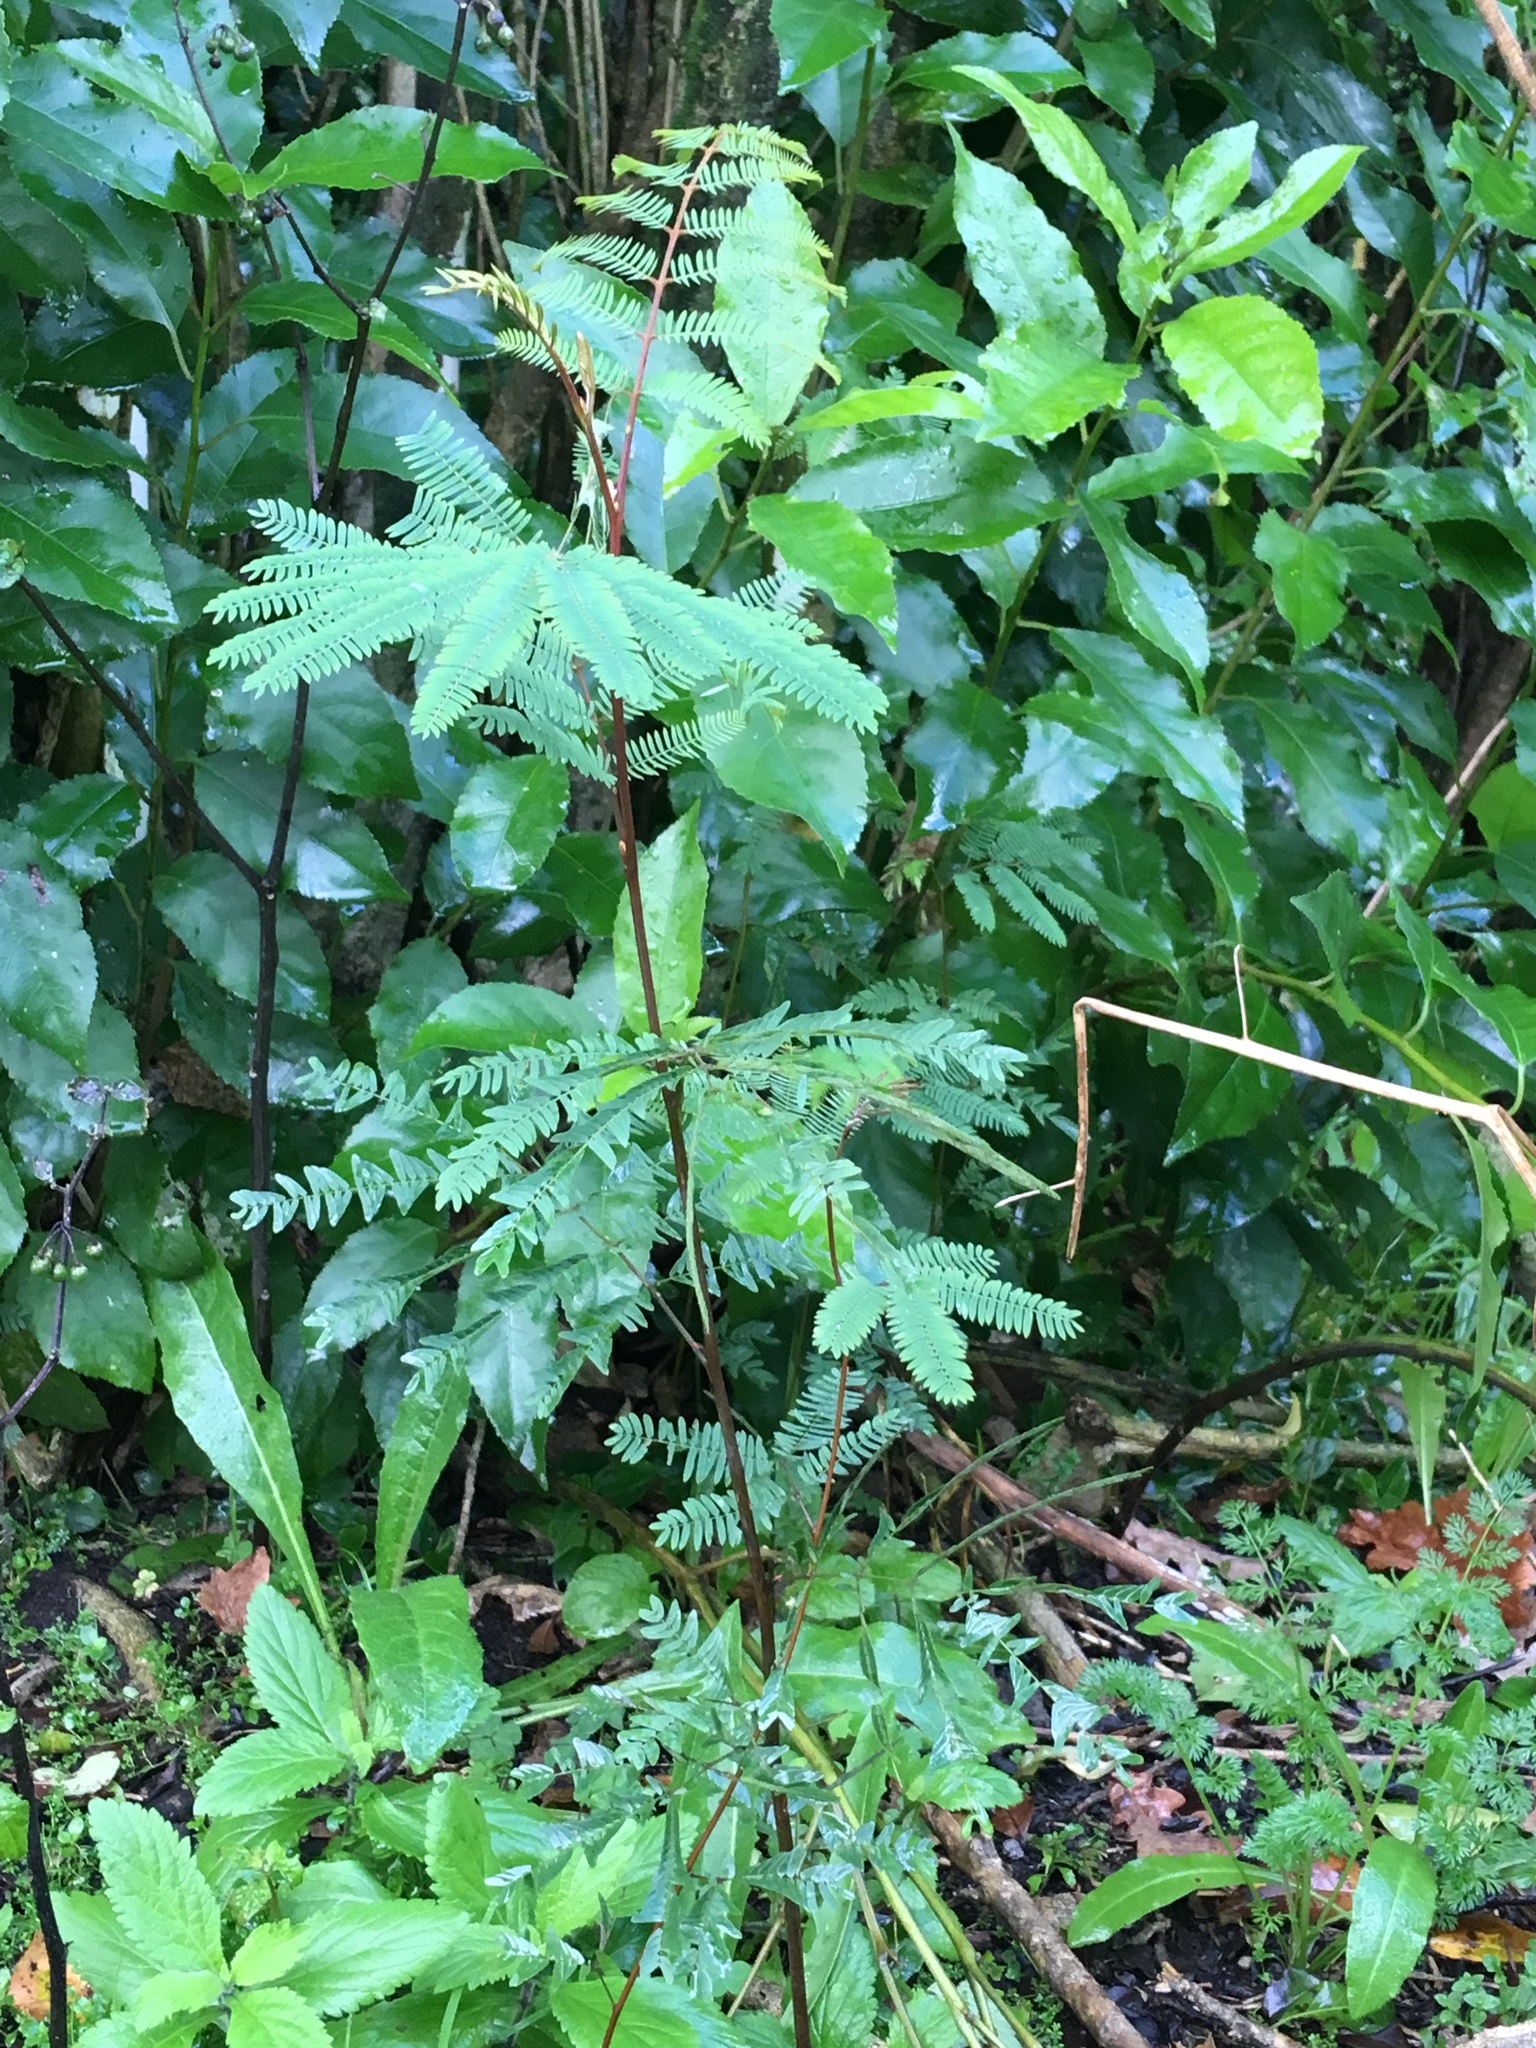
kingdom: Plantae
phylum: Tracheophyta
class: Magnoliopsida
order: Fabales
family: Fabaceae
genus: Paraserianthes
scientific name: Paraserianthes lophantha
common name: Plume albizia
